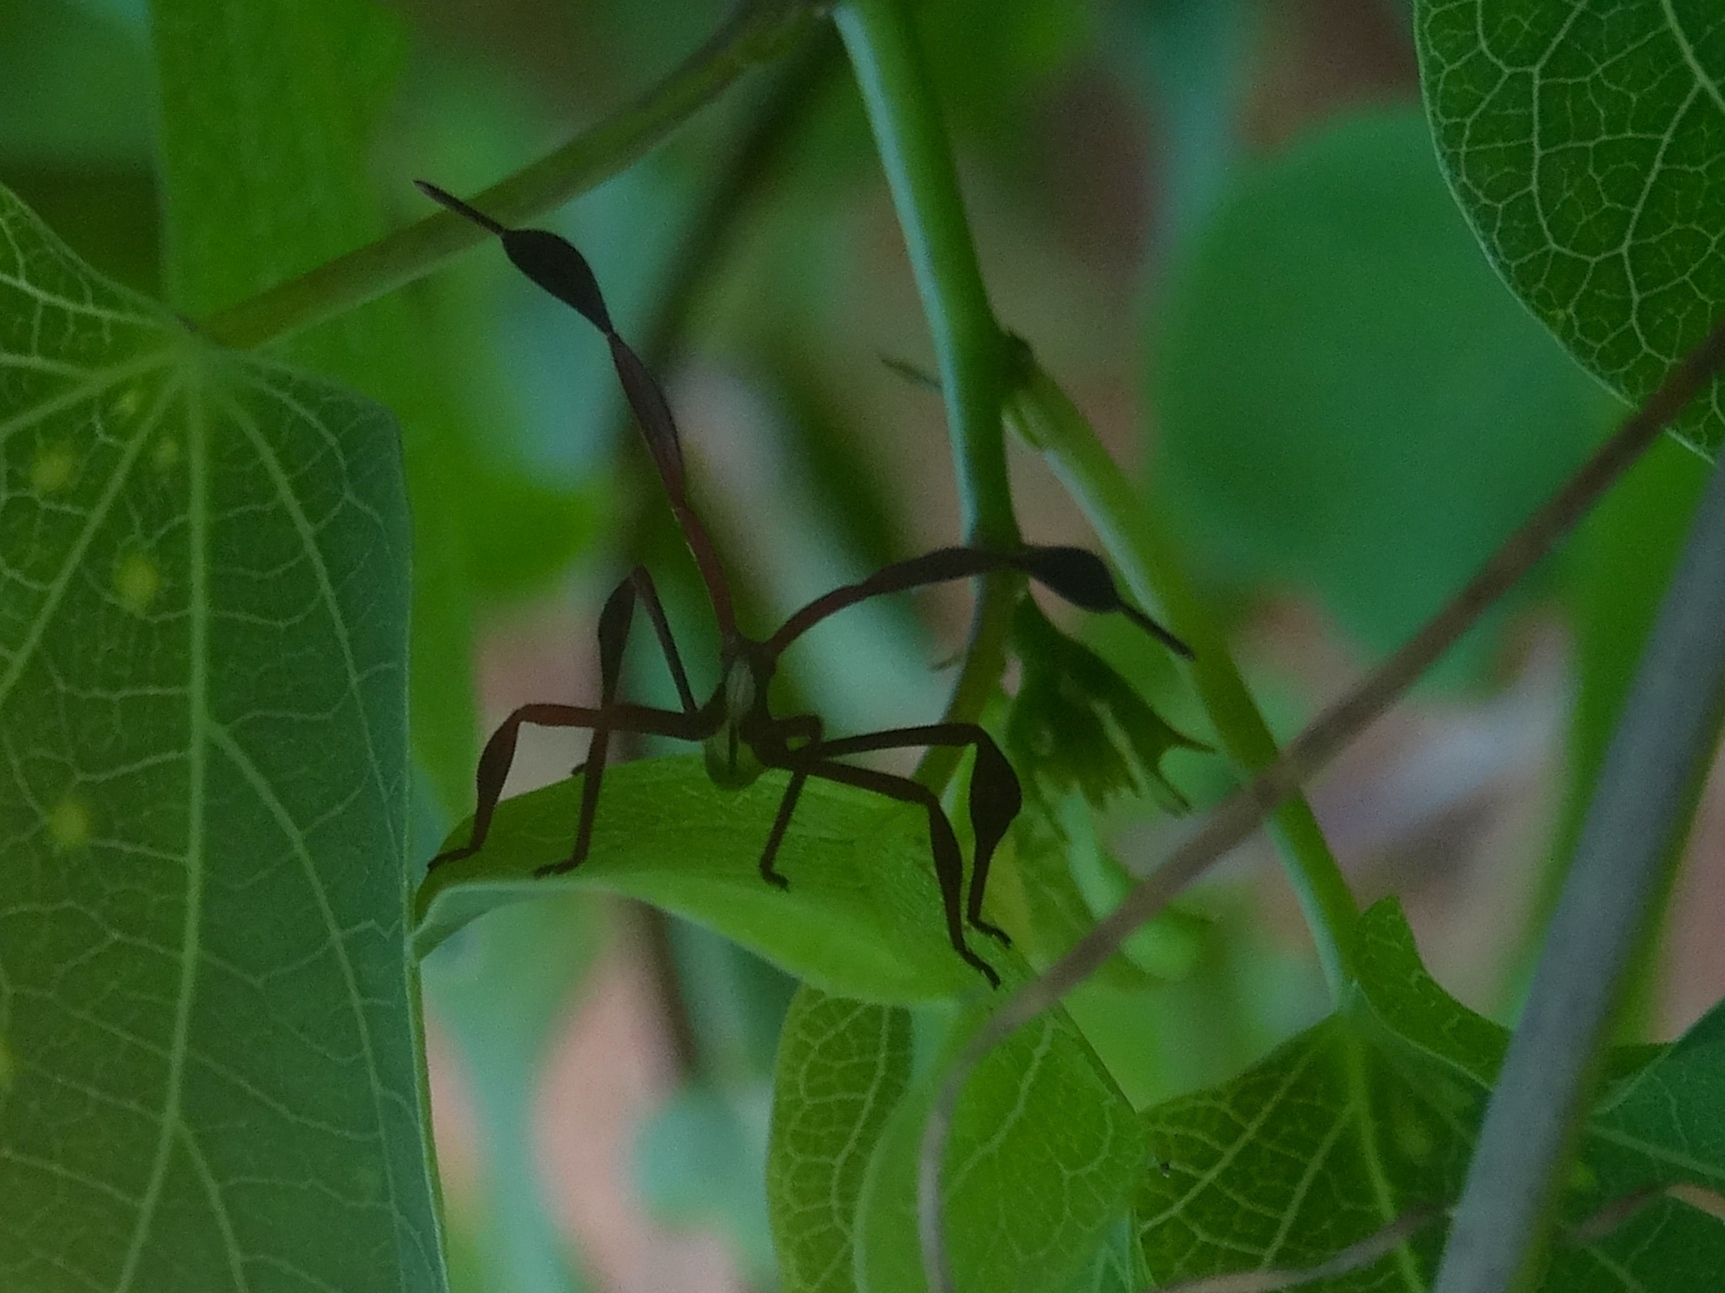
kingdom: Animalia
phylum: Arthropoda
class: Insecta
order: Hemiptera
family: Coreidae
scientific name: Coreidae
